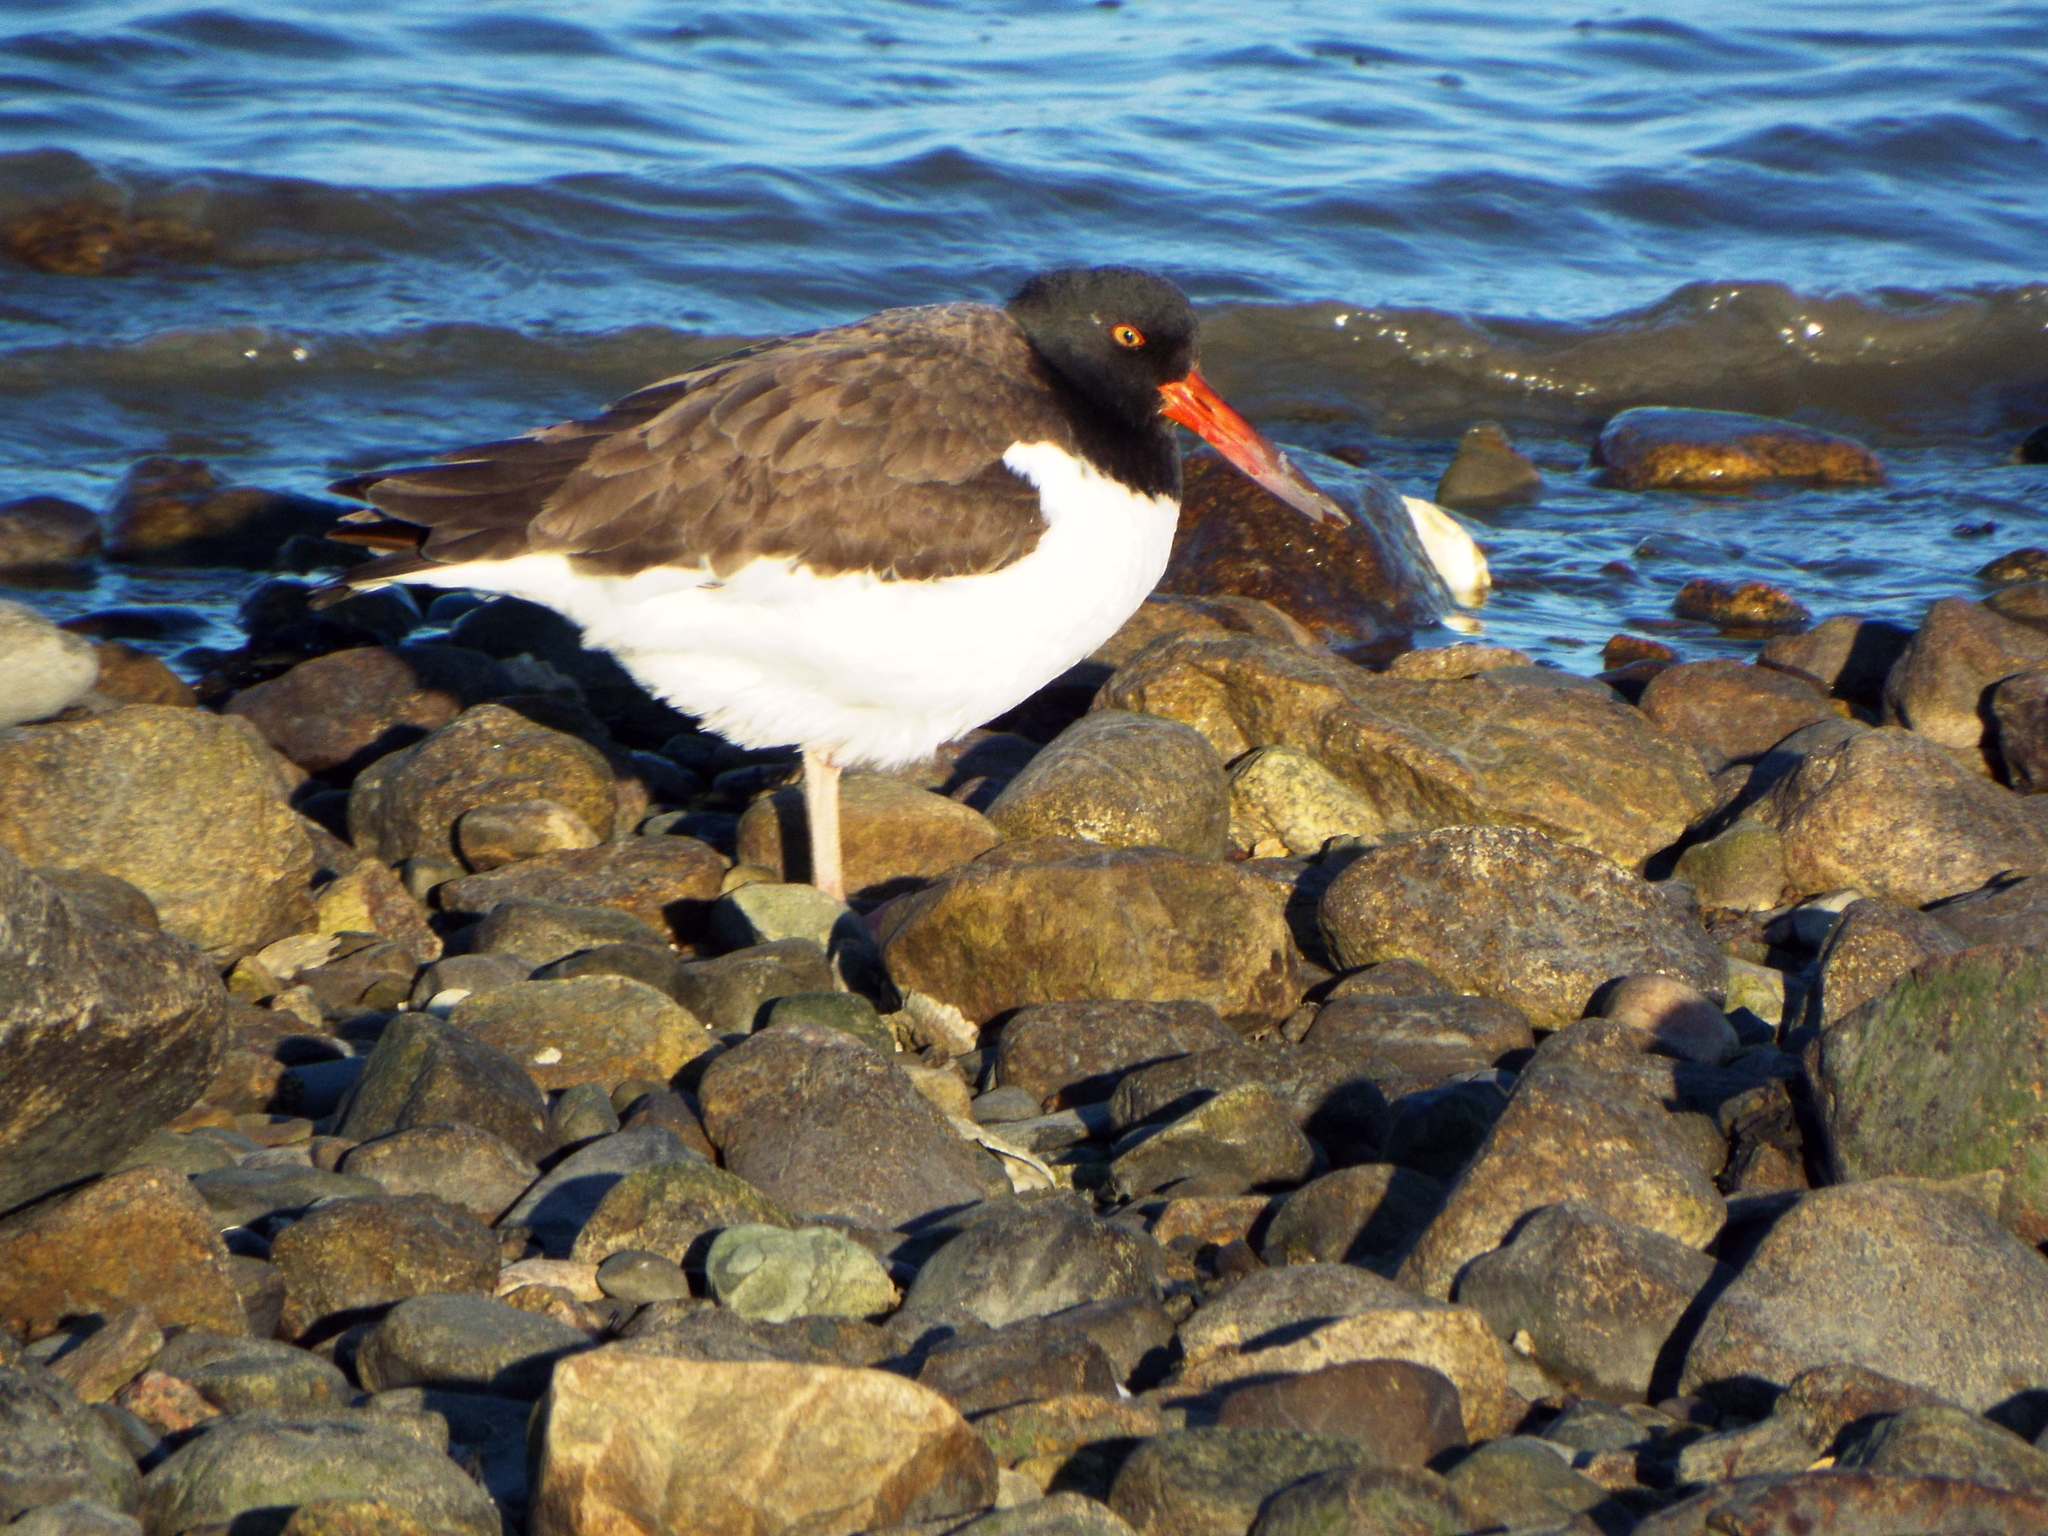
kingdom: Animalia
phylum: Chordata
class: Aves
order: Charadriiformes
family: Haematopodidae
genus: Haematopus
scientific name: Haematopus palliatus
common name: American oystercatcher
